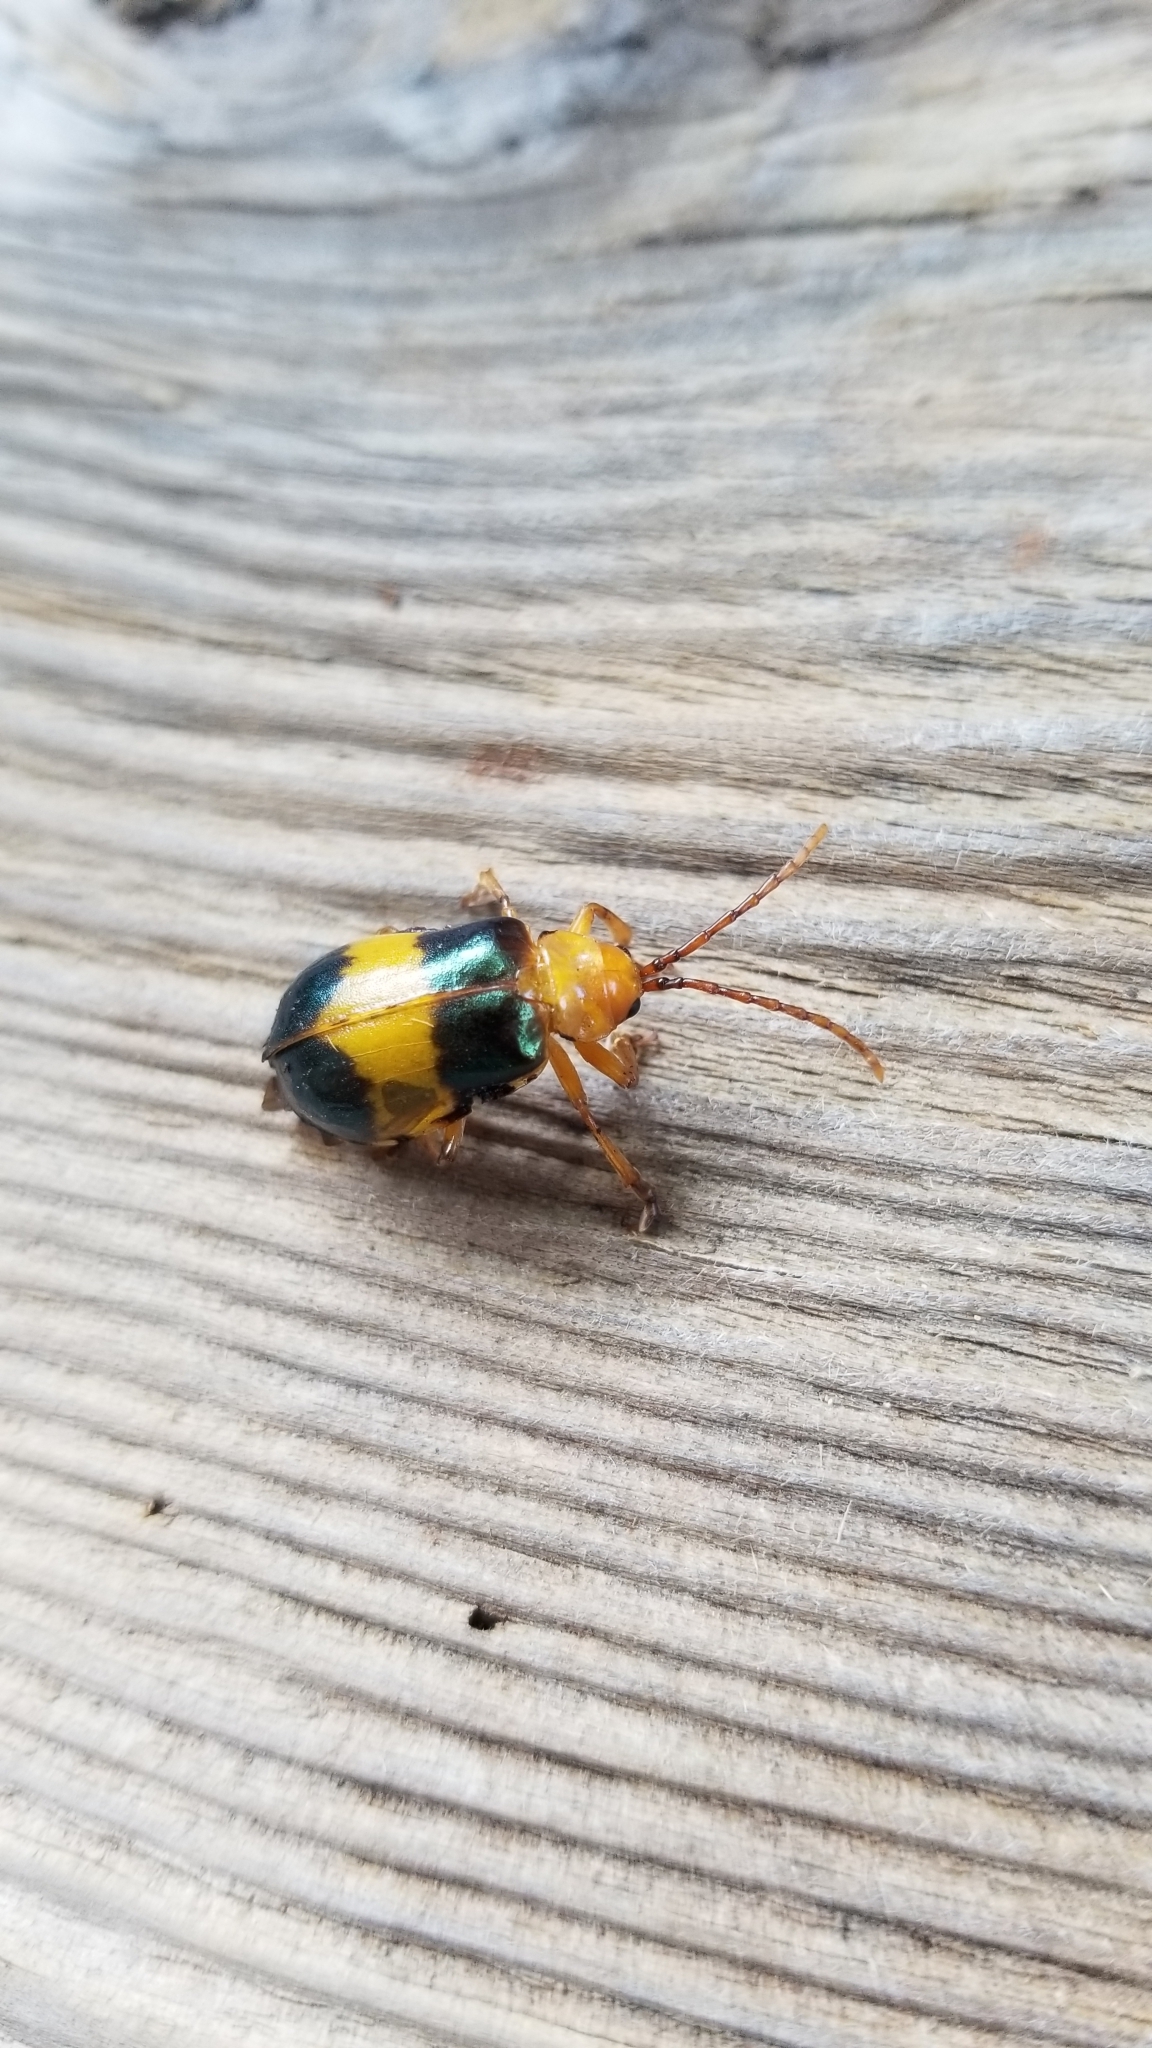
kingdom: Animalia
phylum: Arthropoda
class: Insecta
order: Coleoptera
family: Chrysomelidae
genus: Monocesta
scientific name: Monocesta coryli
